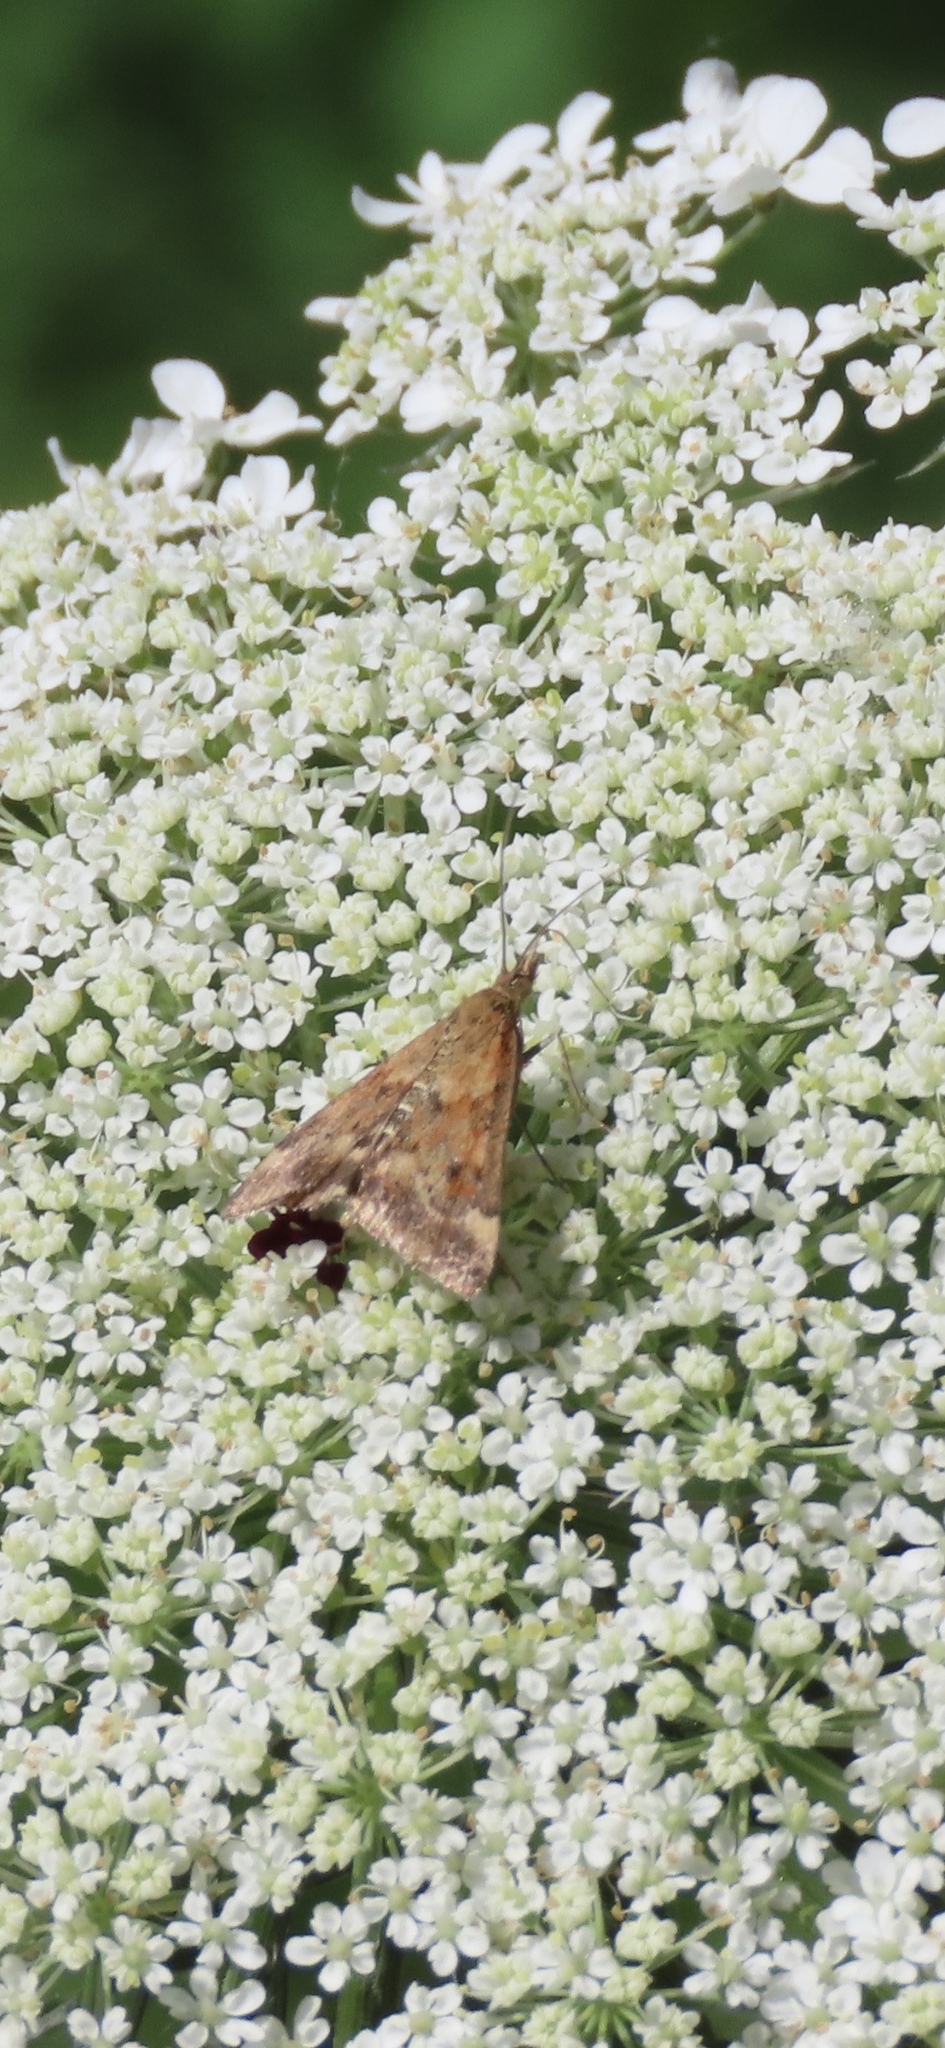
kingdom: Animalia
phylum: Arthropoda
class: Insecta
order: Lepidoptera
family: Crambidae
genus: Pyrausta
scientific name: Pyrausta despicata
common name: Straw-barred pearl
